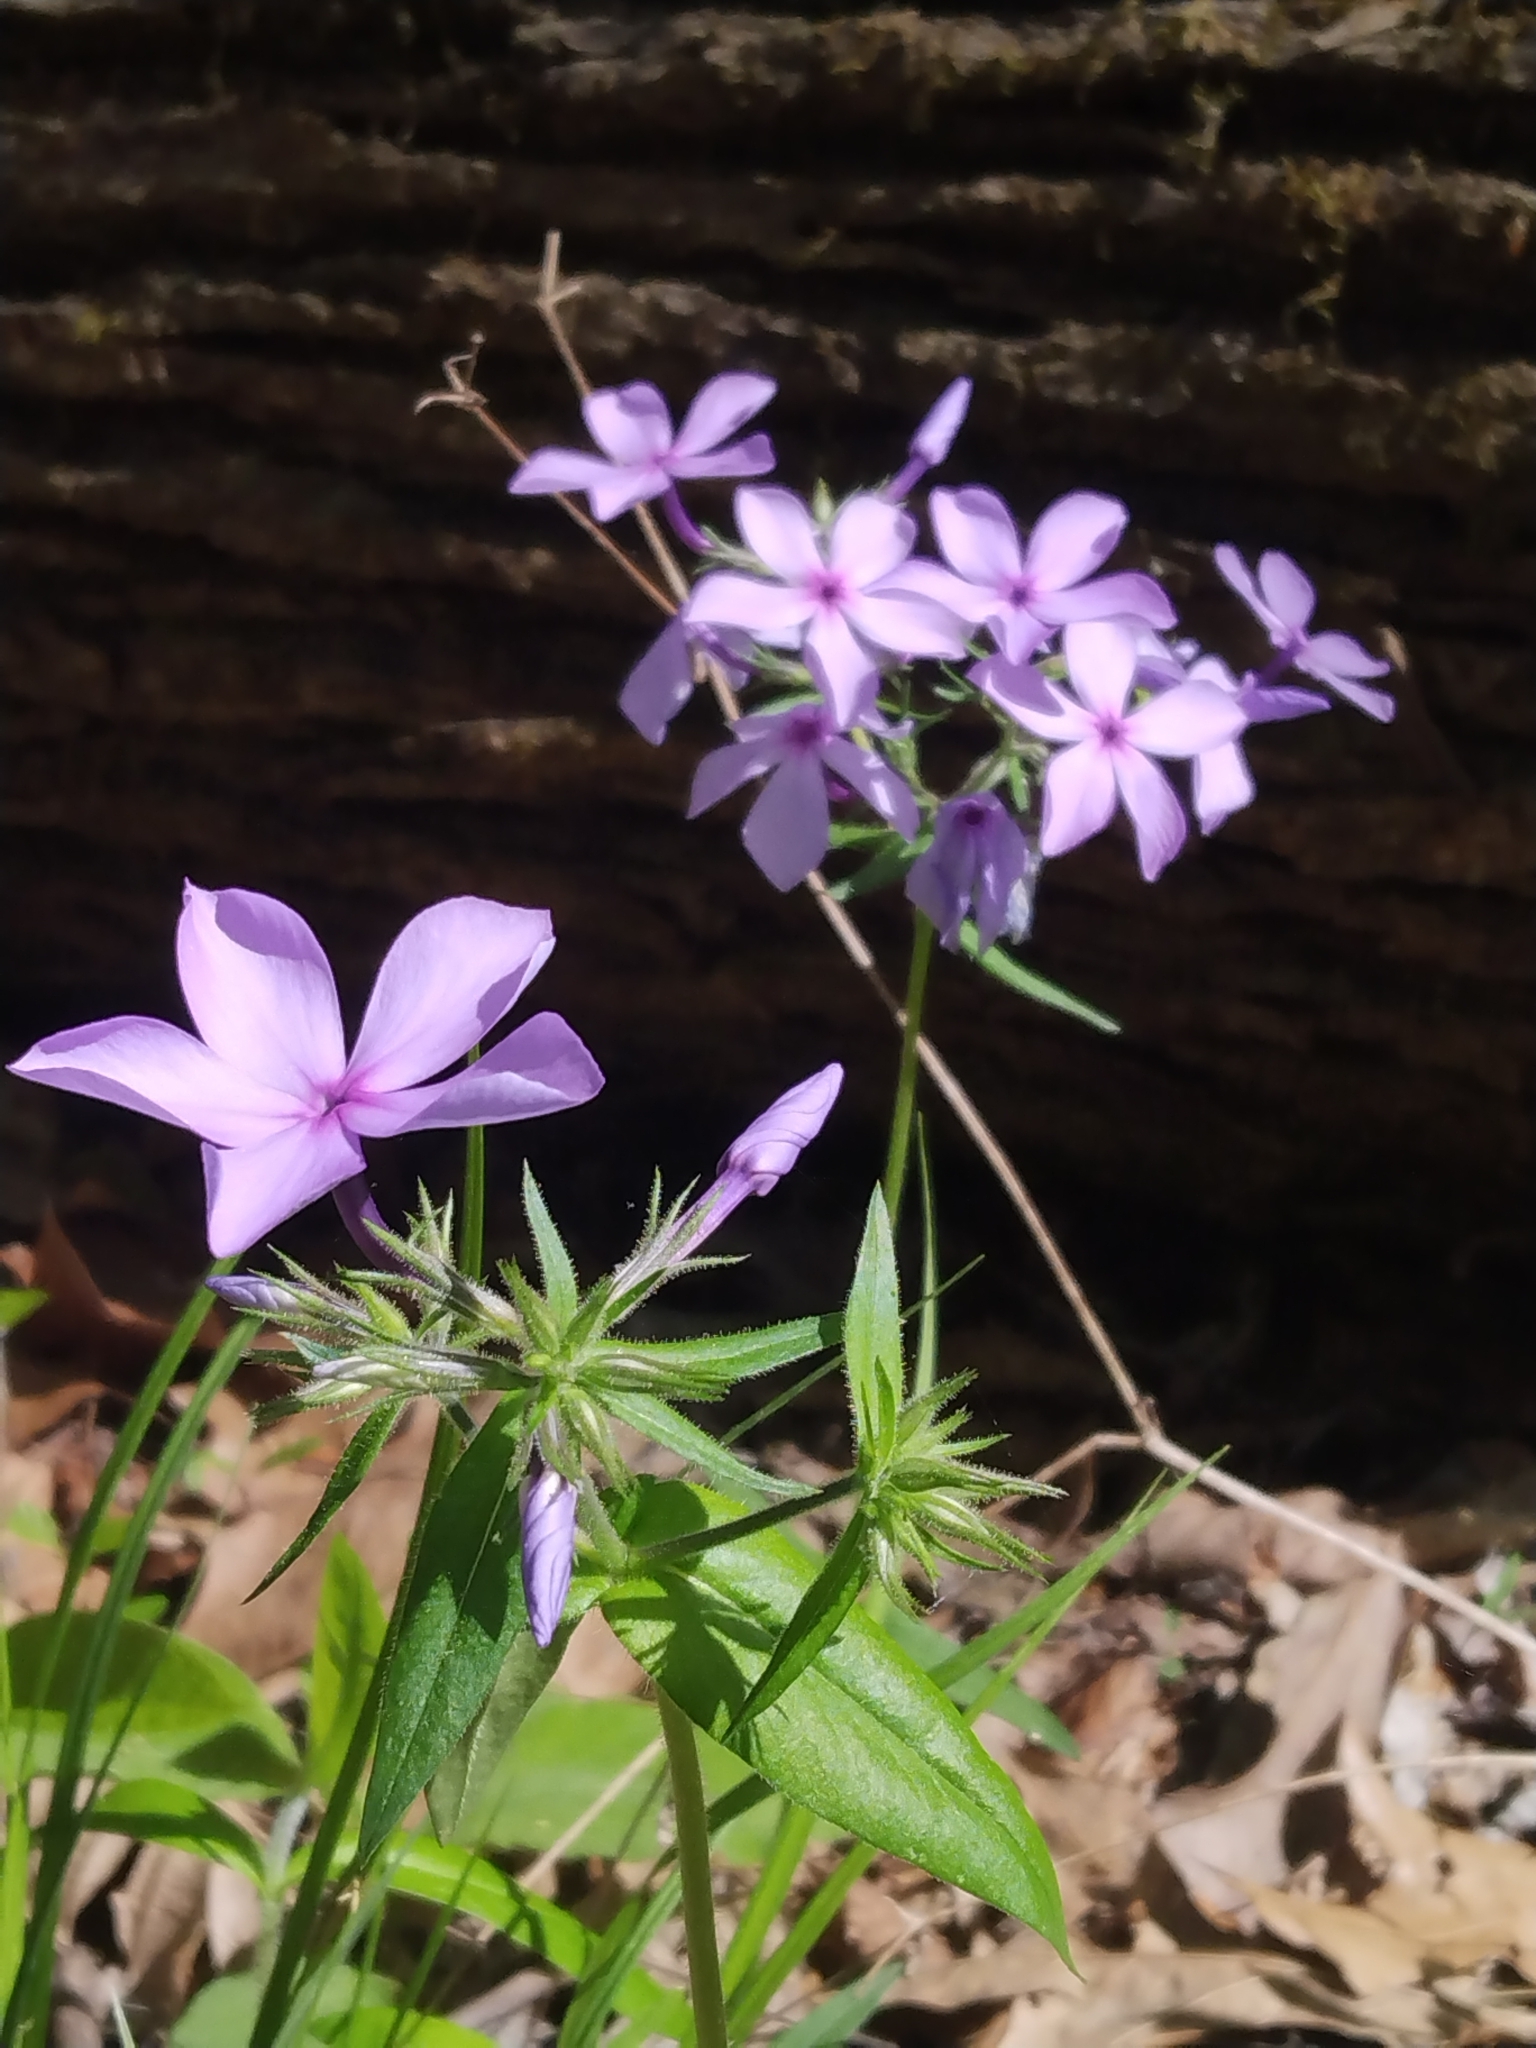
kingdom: Plantae
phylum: Tracheophyta
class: Magnoliopsida
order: Ericales
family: Polemoniaceae
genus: Phlox
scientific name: Phlox divaricata
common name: Blue phlox
